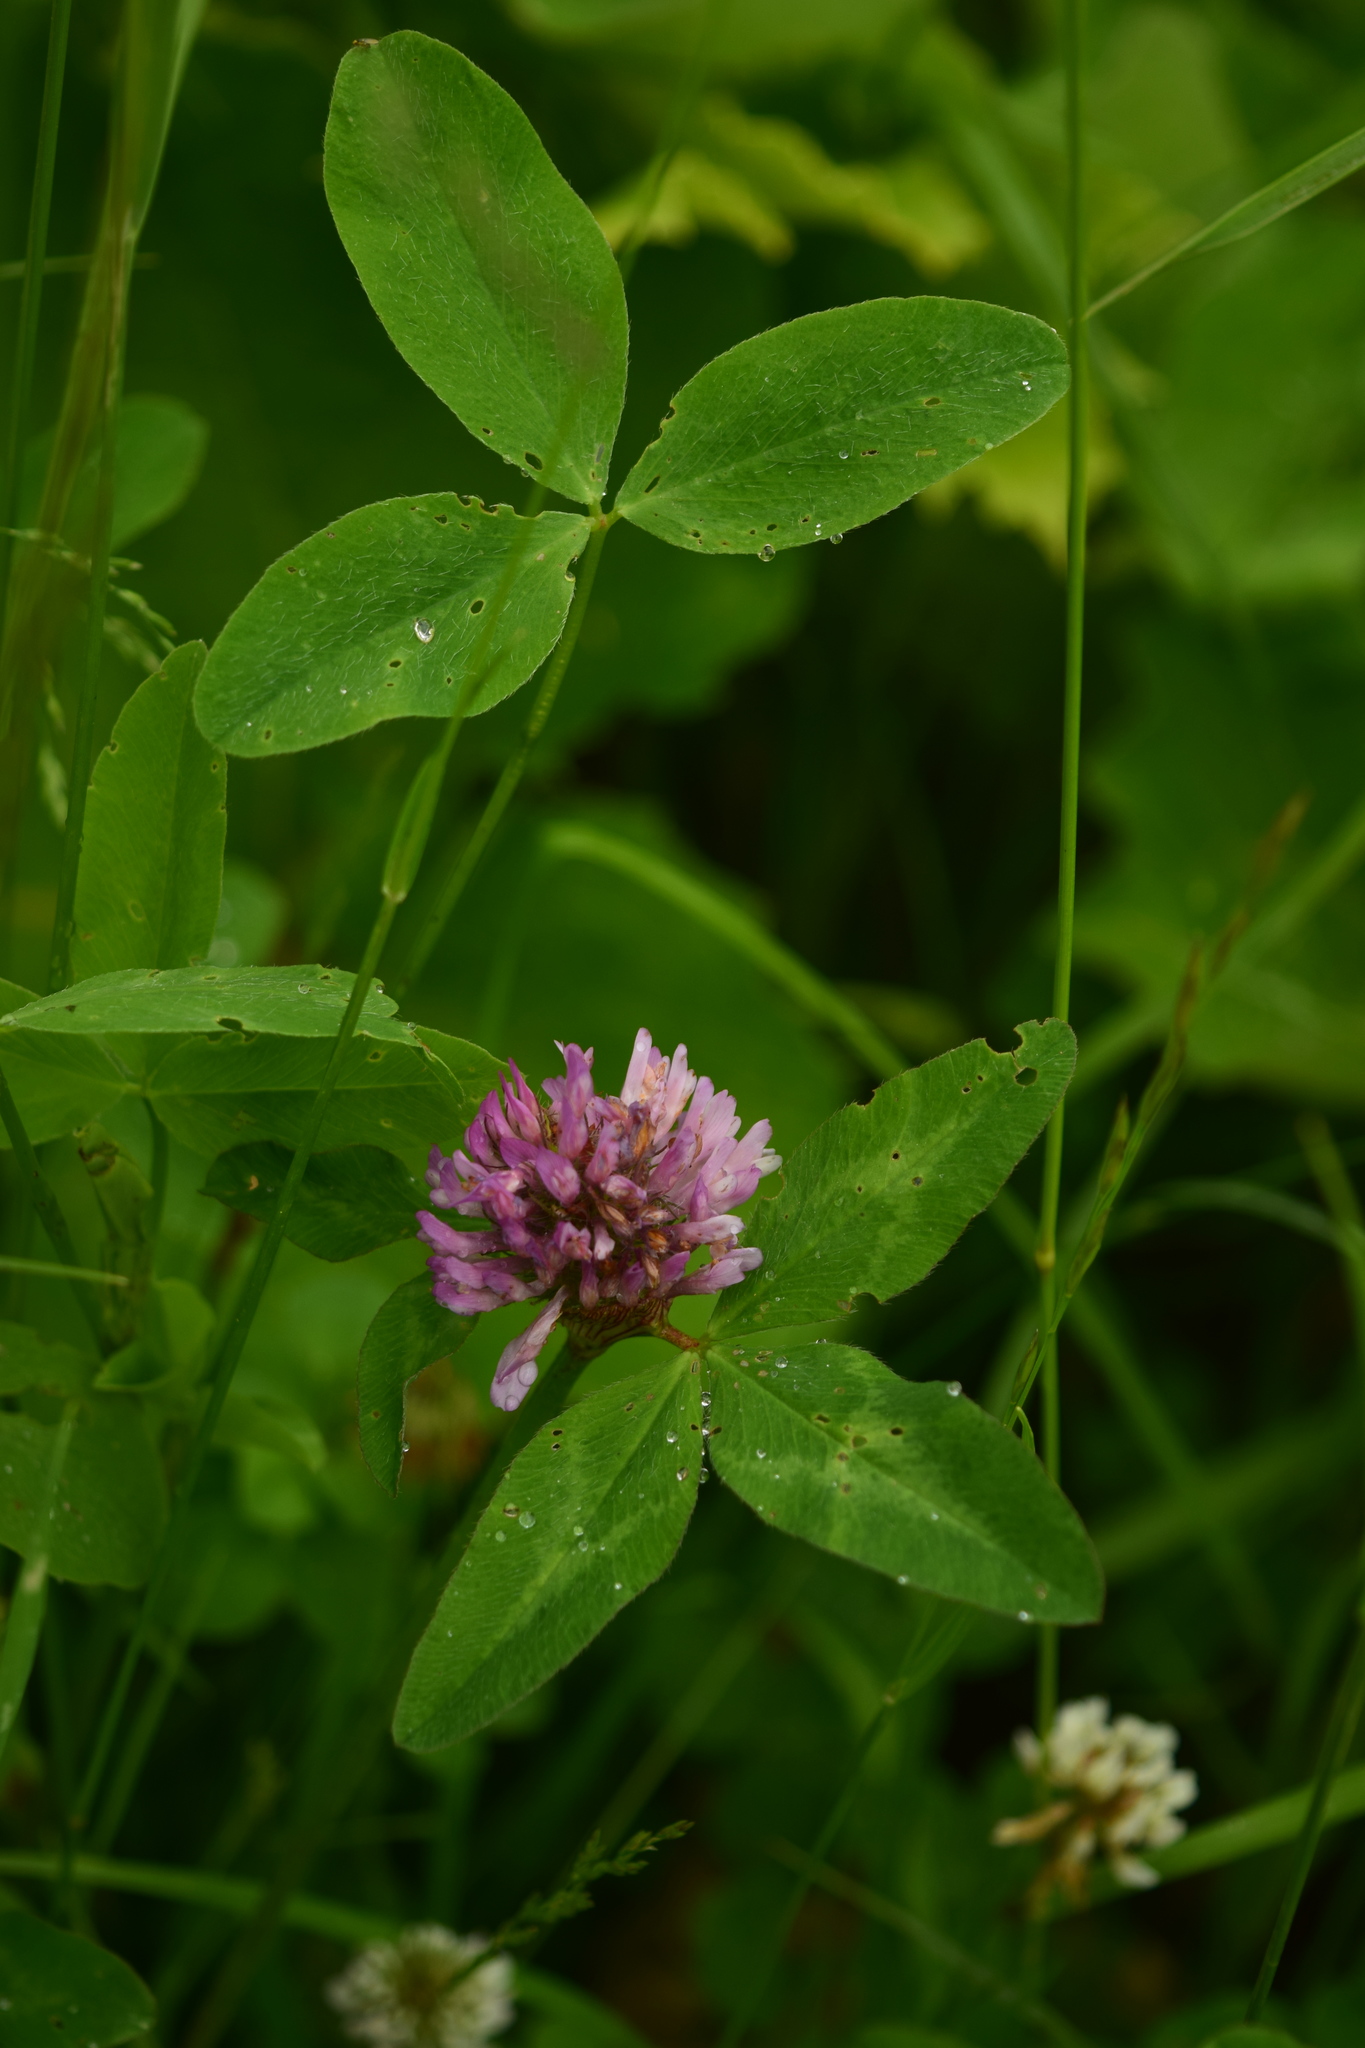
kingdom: Plantae
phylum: Tracheophyta
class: Magnoliopsida
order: Fabales
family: Fabaceae
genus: Trifolium
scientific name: Trifolium pratense
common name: Red clover
